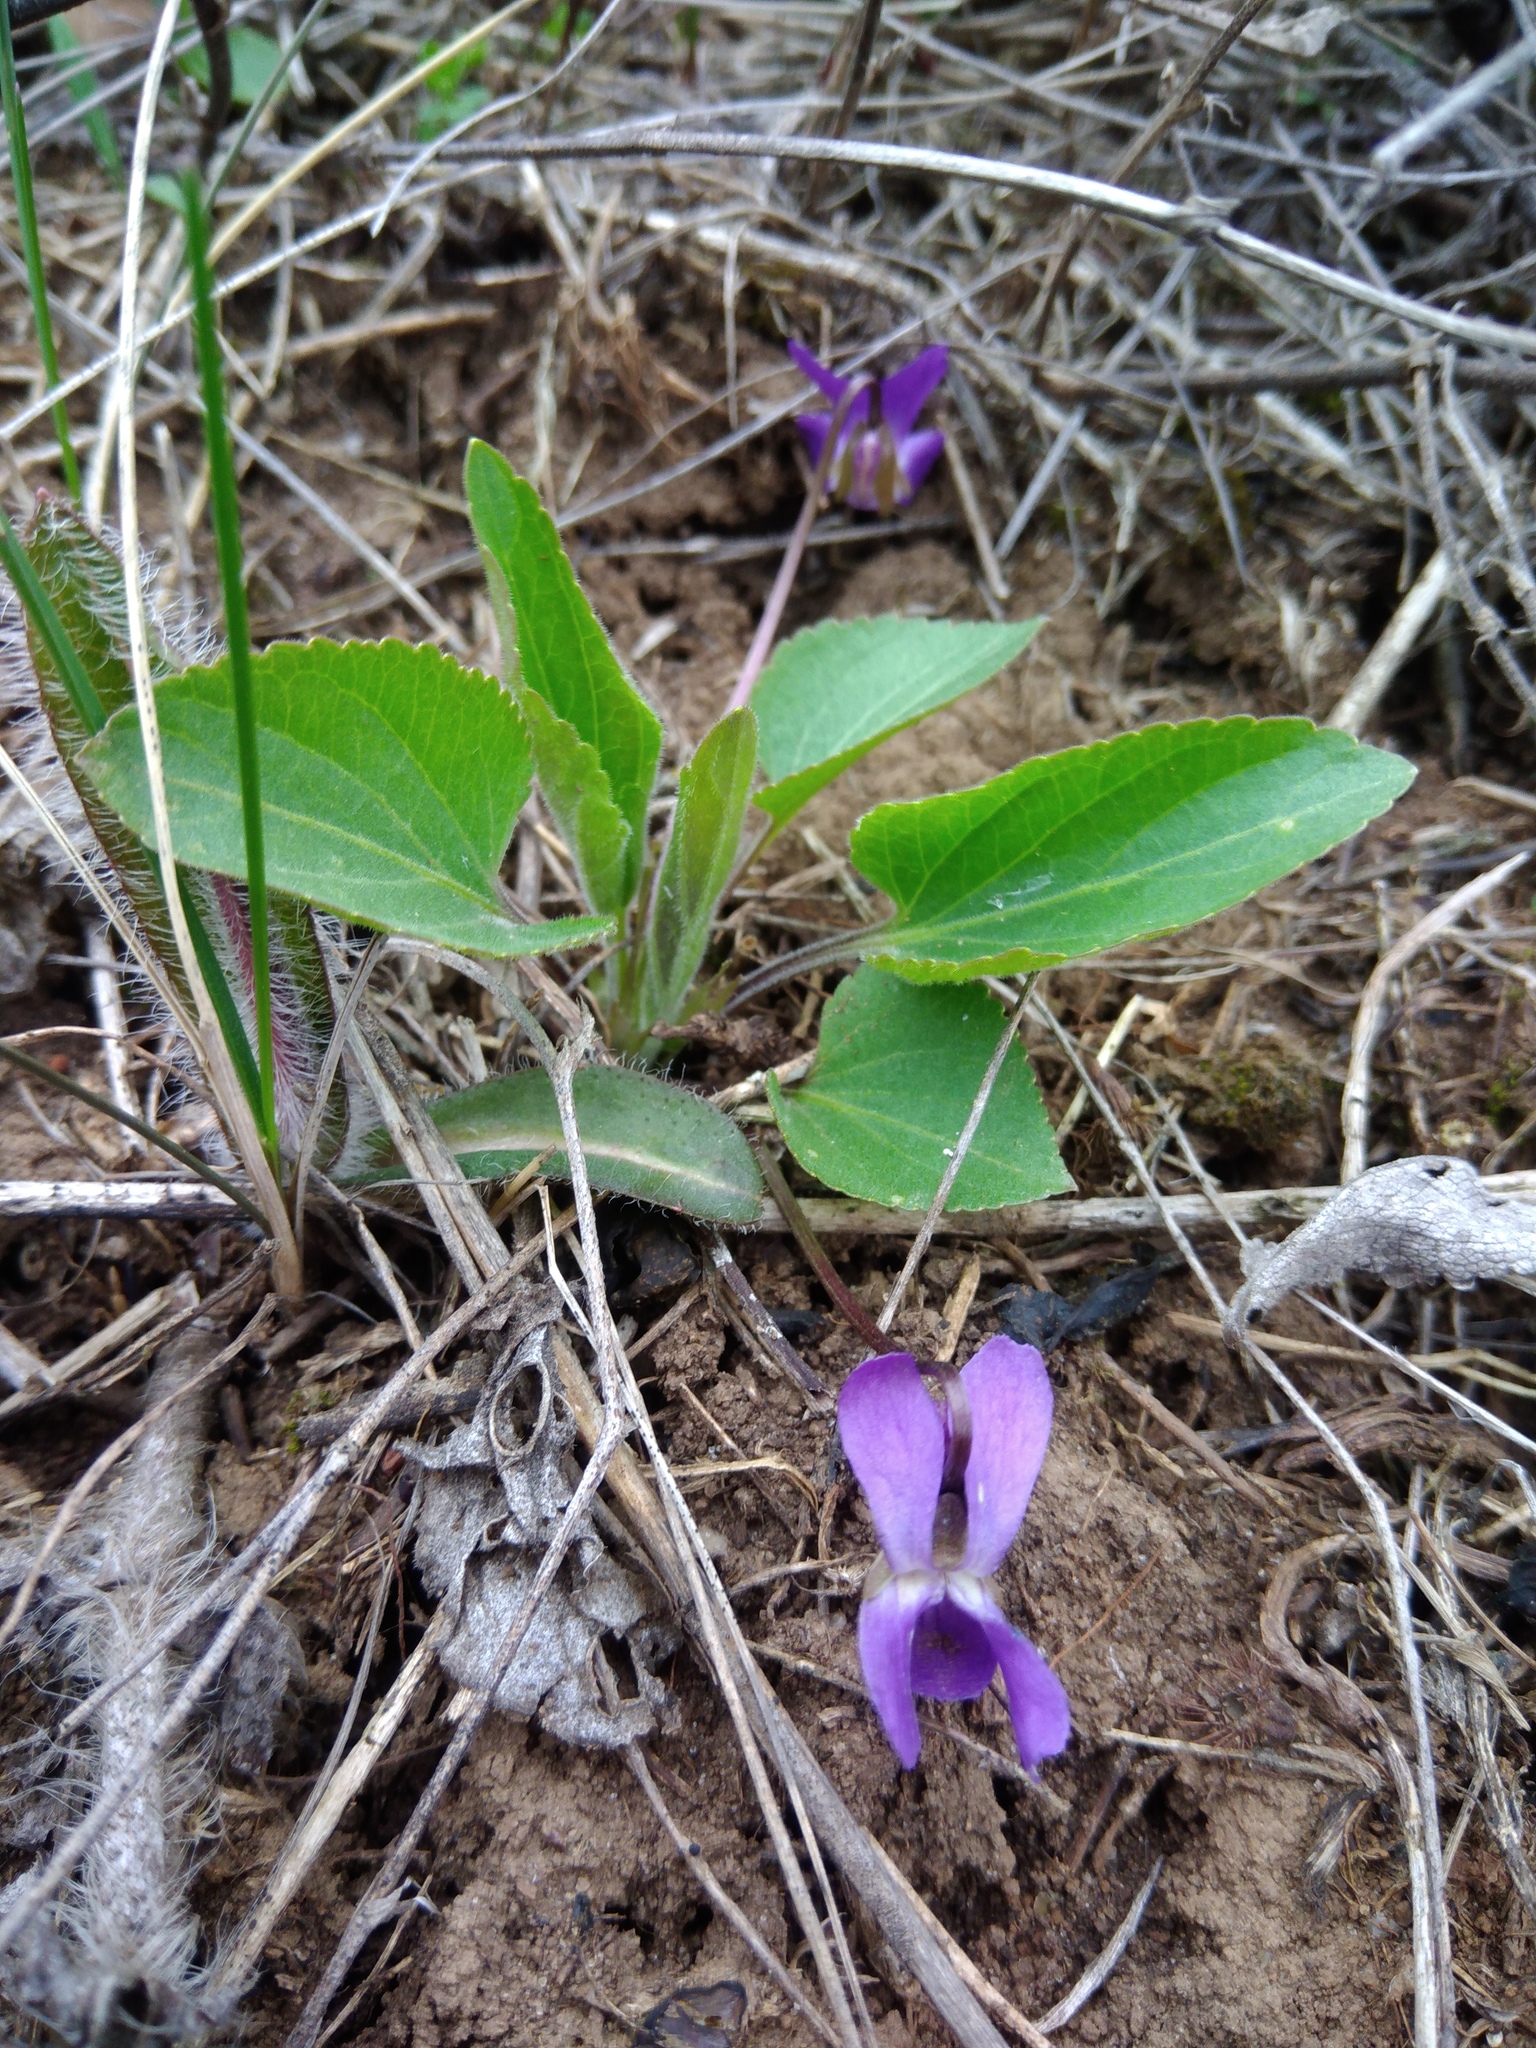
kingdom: Plantae
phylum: Tracheophyta
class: Magnoliopsida
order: Malpighiales
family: Violaceae
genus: Viola
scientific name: Viola ambigua
